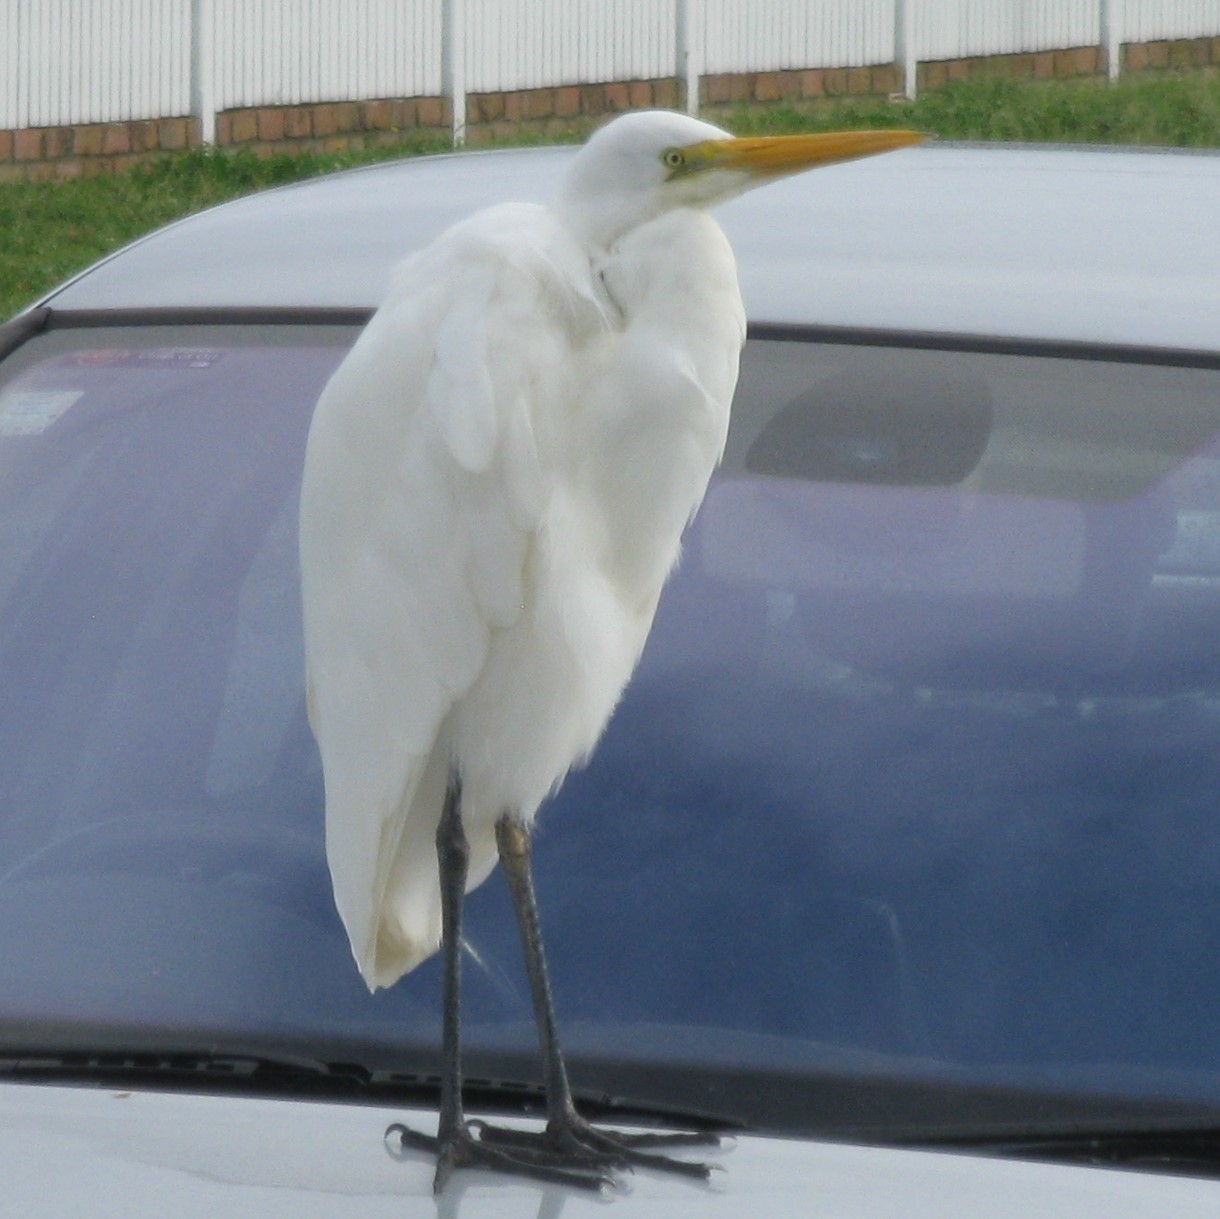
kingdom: Animalia
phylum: Chordata
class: Aves
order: Pelecaniformes
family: Ardeidae
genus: Ardea
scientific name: Ardea modesta
